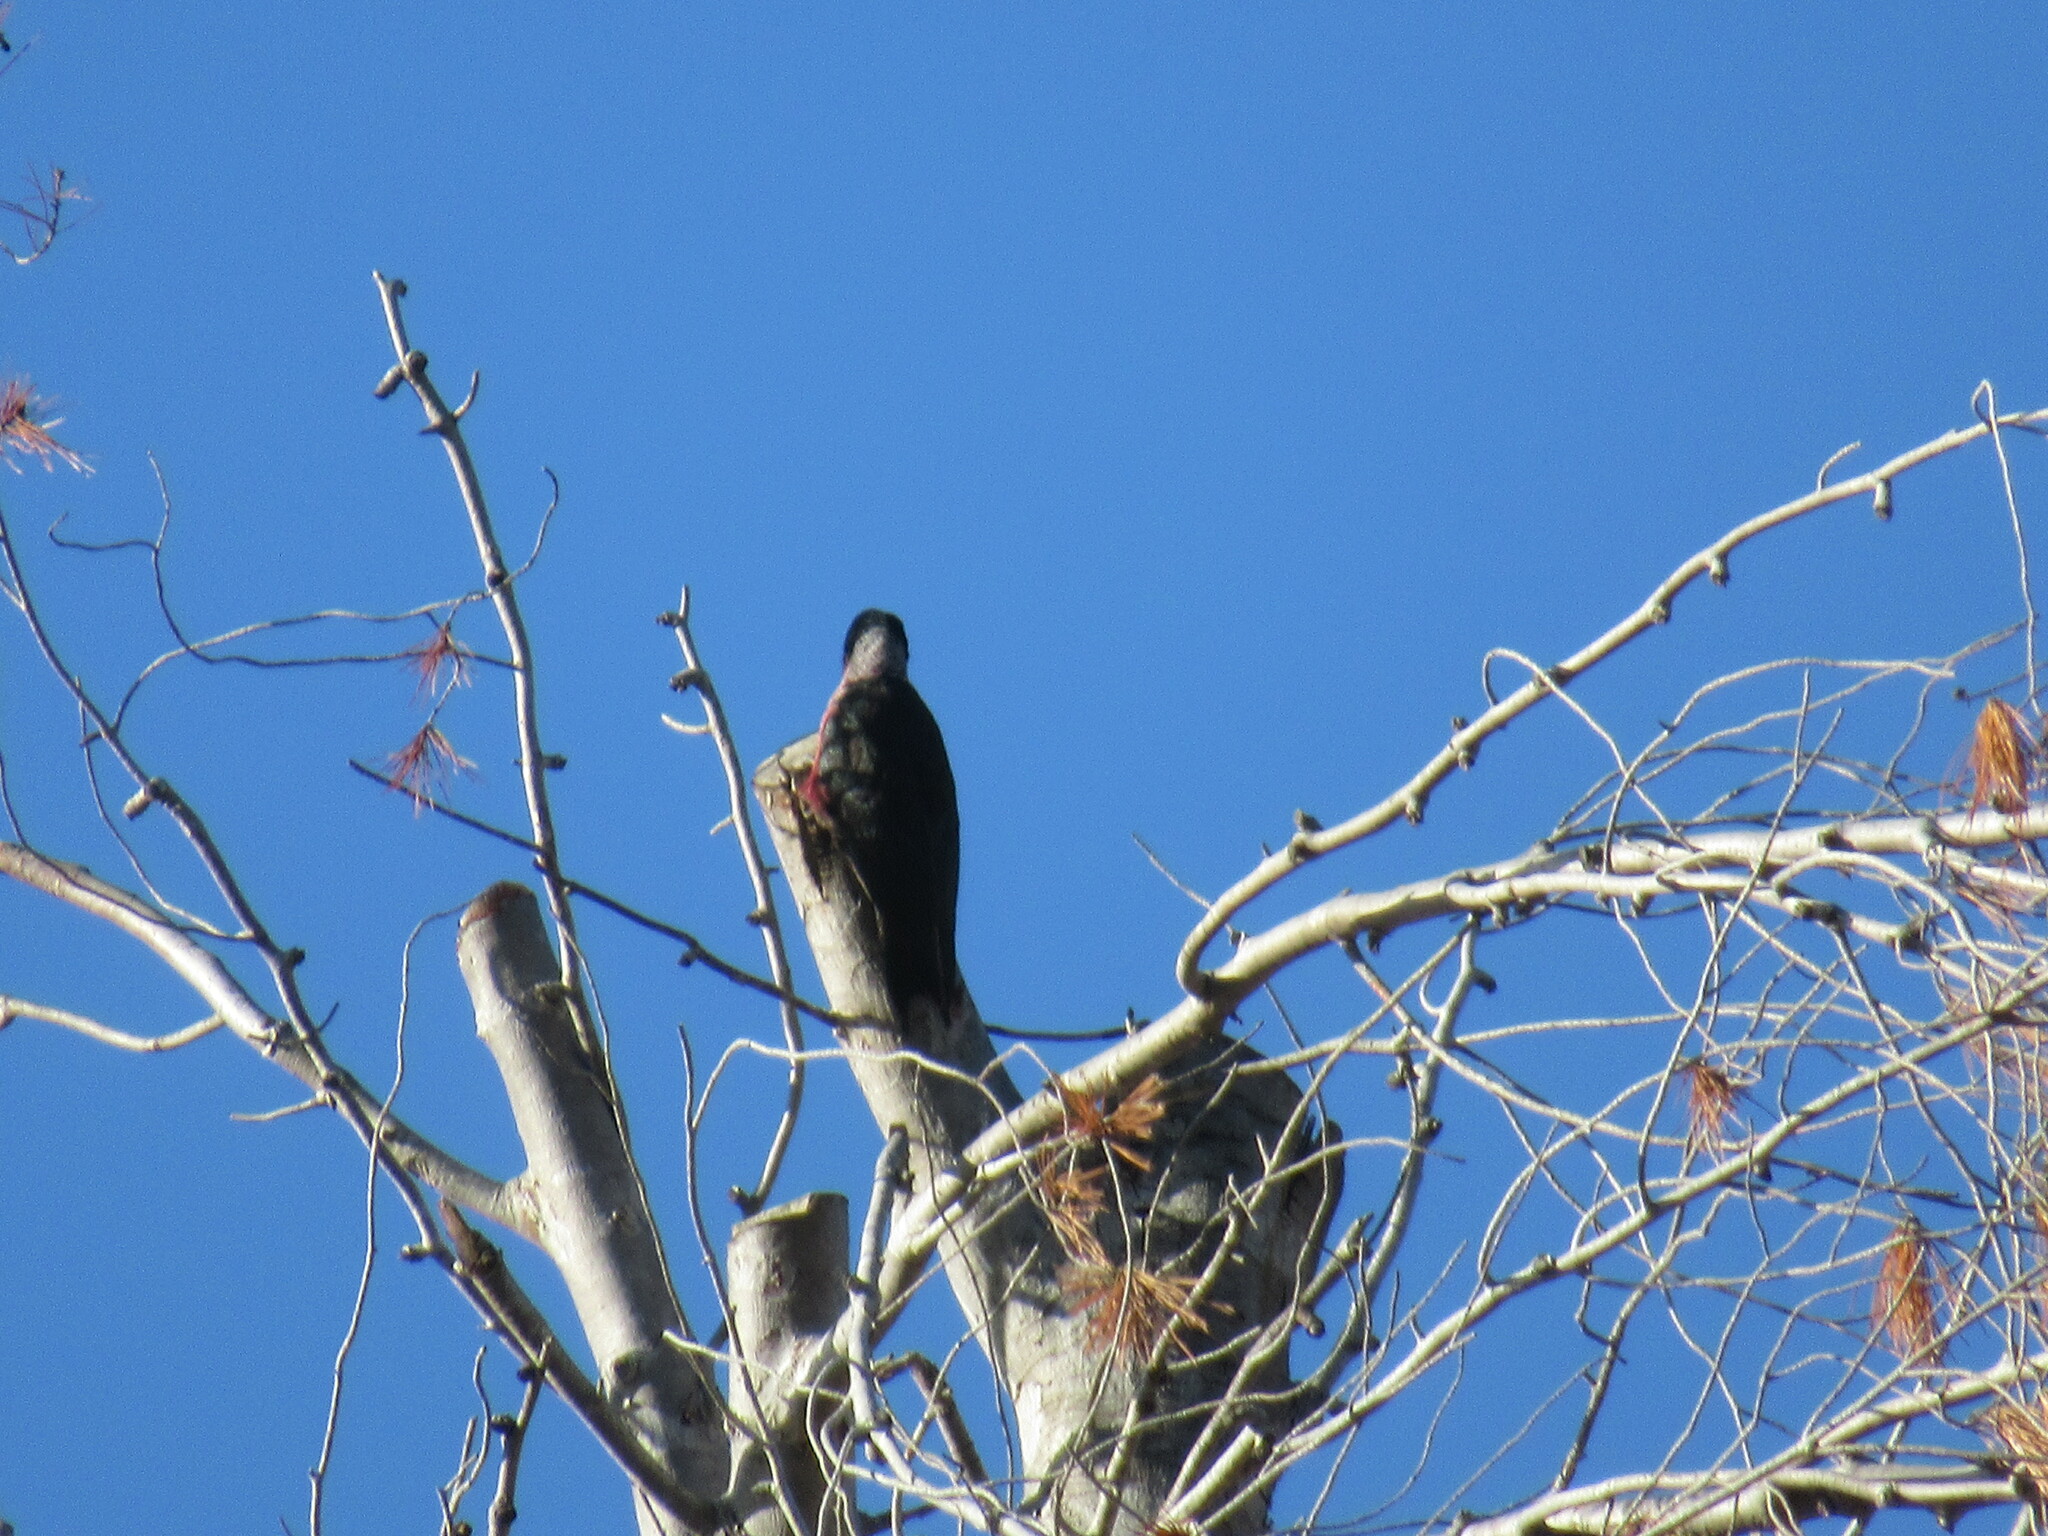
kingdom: Animalia
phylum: Chordata
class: Aves
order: Piciformes
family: Picidae
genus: Melanerpes
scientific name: Melanerpes lewis
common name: Lewis's woodpecker
